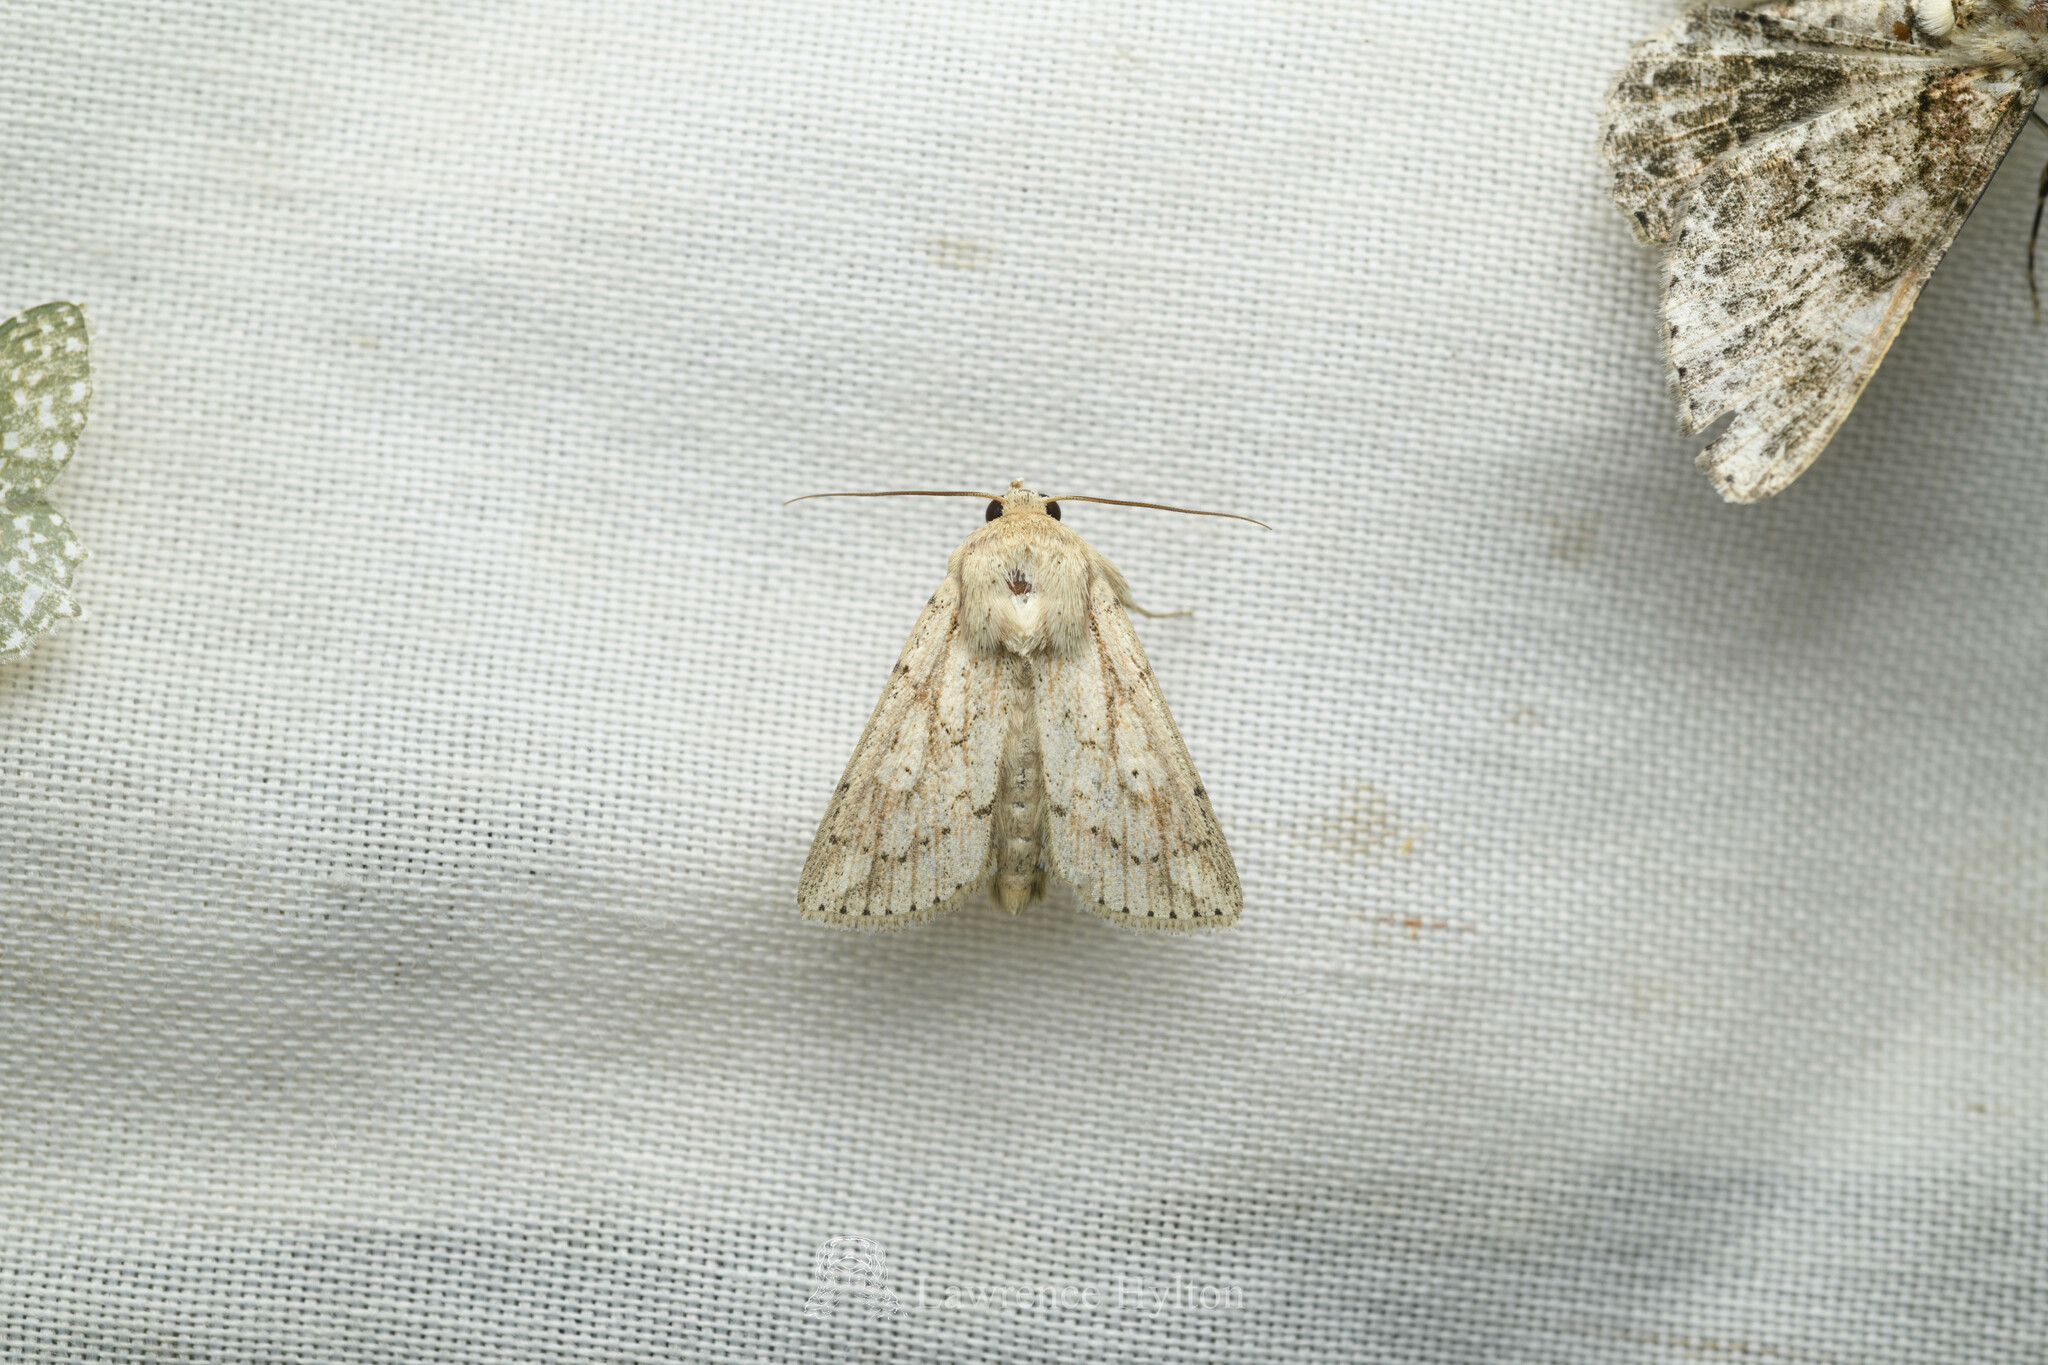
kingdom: Animalia
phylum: Arthropoda
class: Insecta
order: Lepidoptera
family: Noctuidae
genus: Mythimna
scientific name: Mythimna tricorna
